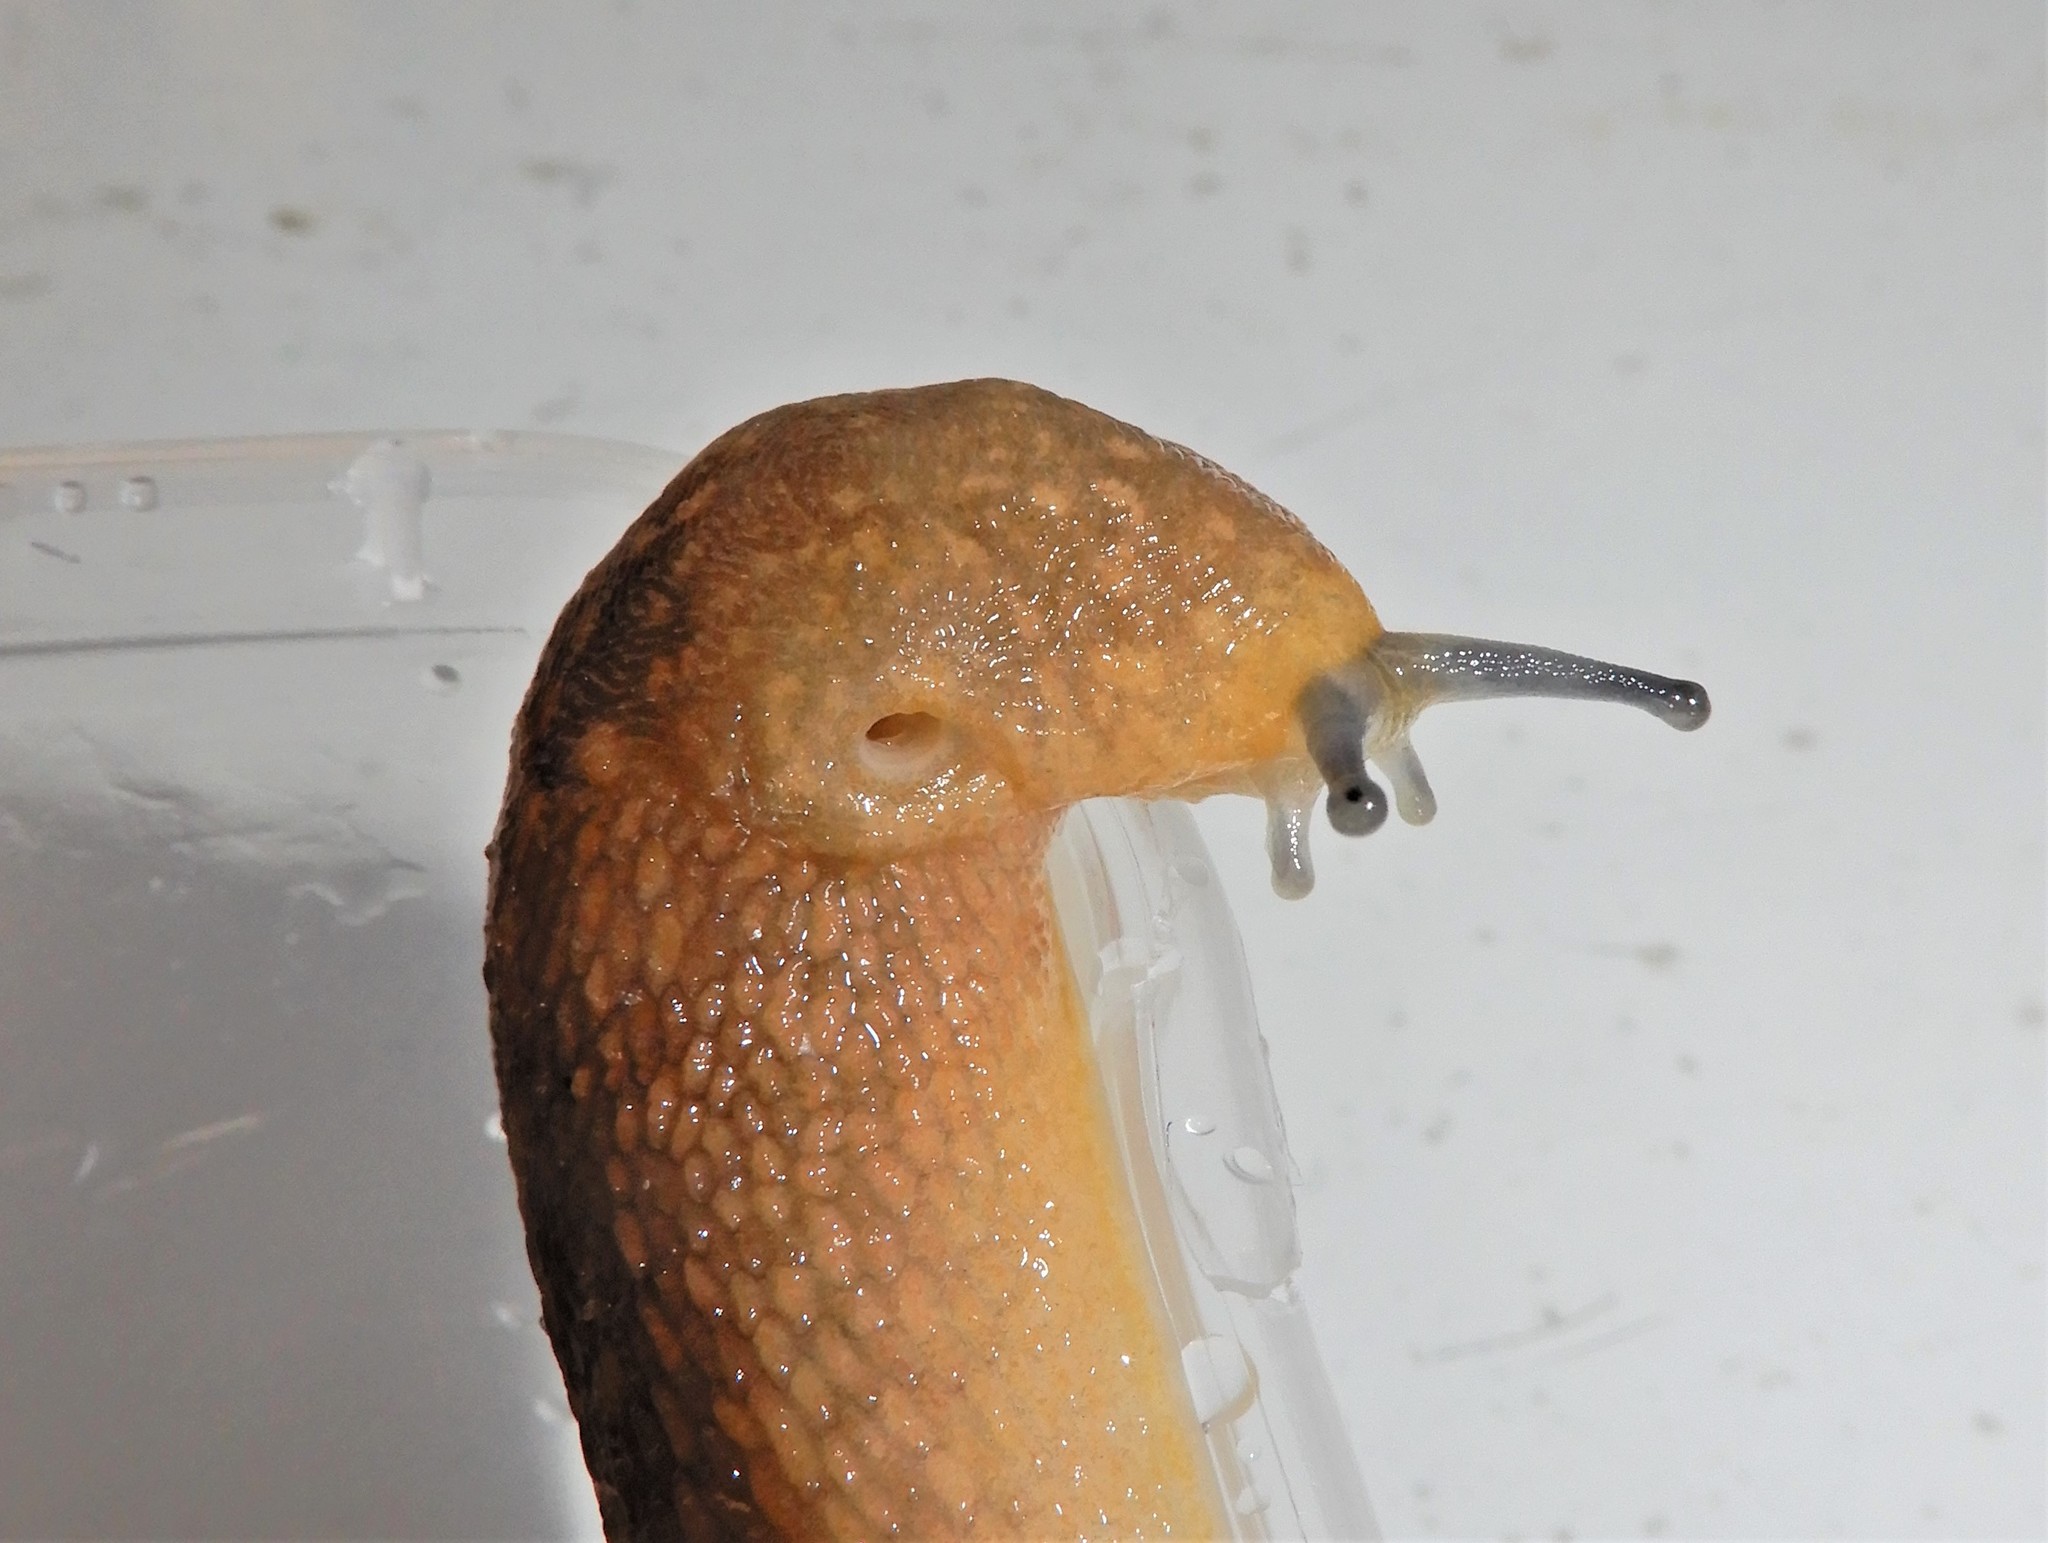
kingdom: Animalia
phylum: Mollusca
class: Gastropoda
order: Stylommatophora
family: Limacidae
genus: Limacus
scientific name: Limacus flavus
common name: Yellow gardenslug
